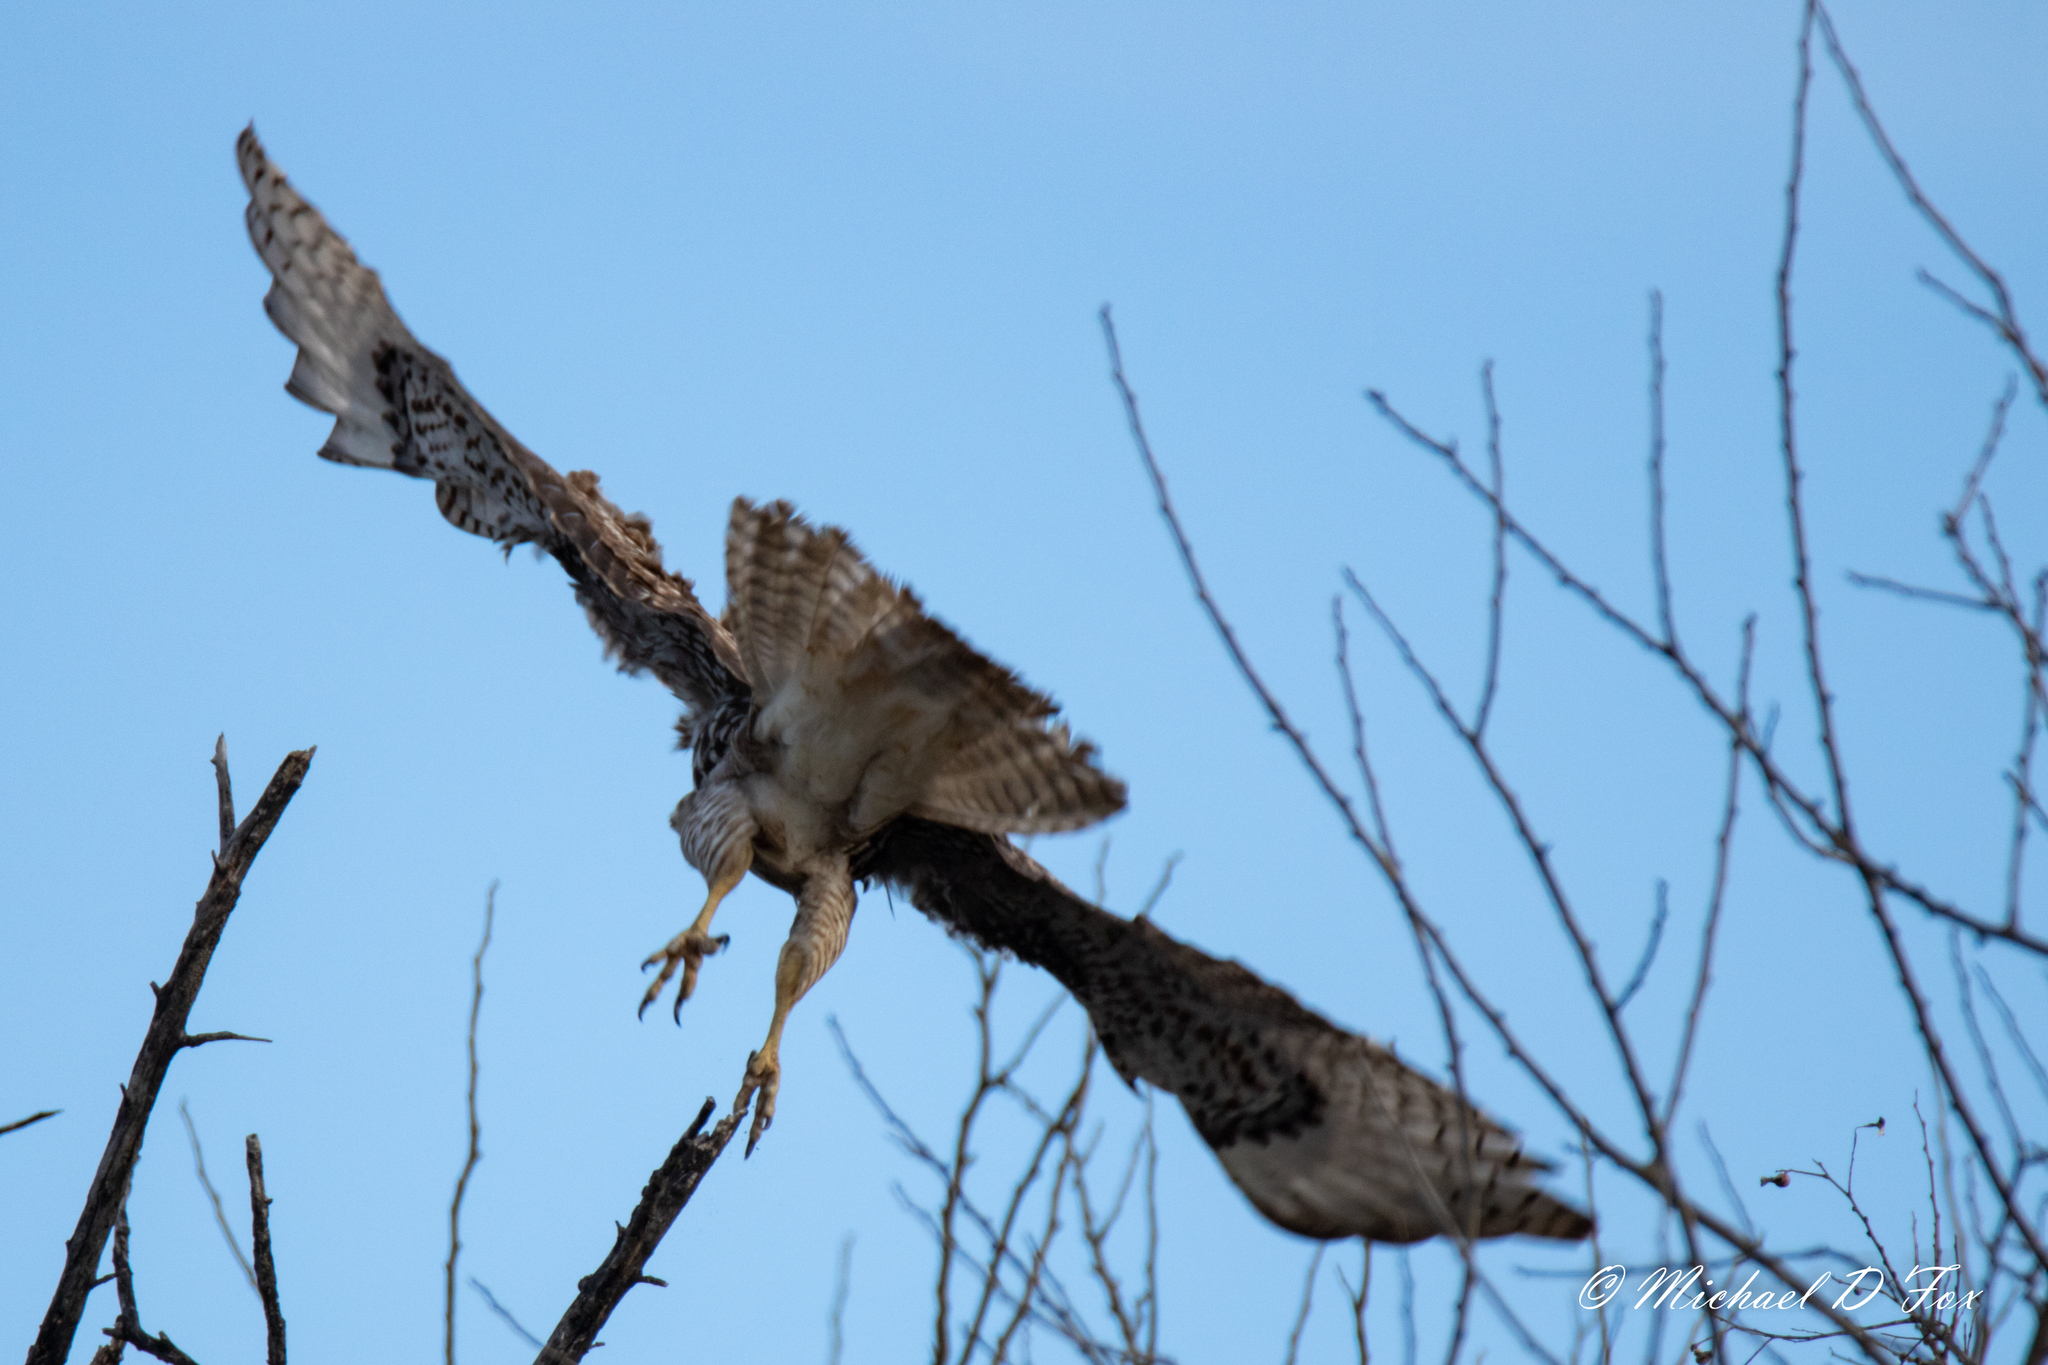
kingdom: Animalia
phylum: Chordata
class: Aves
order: Accipitriformes
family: Accipitridae
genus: Buteo
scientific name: Buteo jamaicensis
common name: Red-tailed hawk
